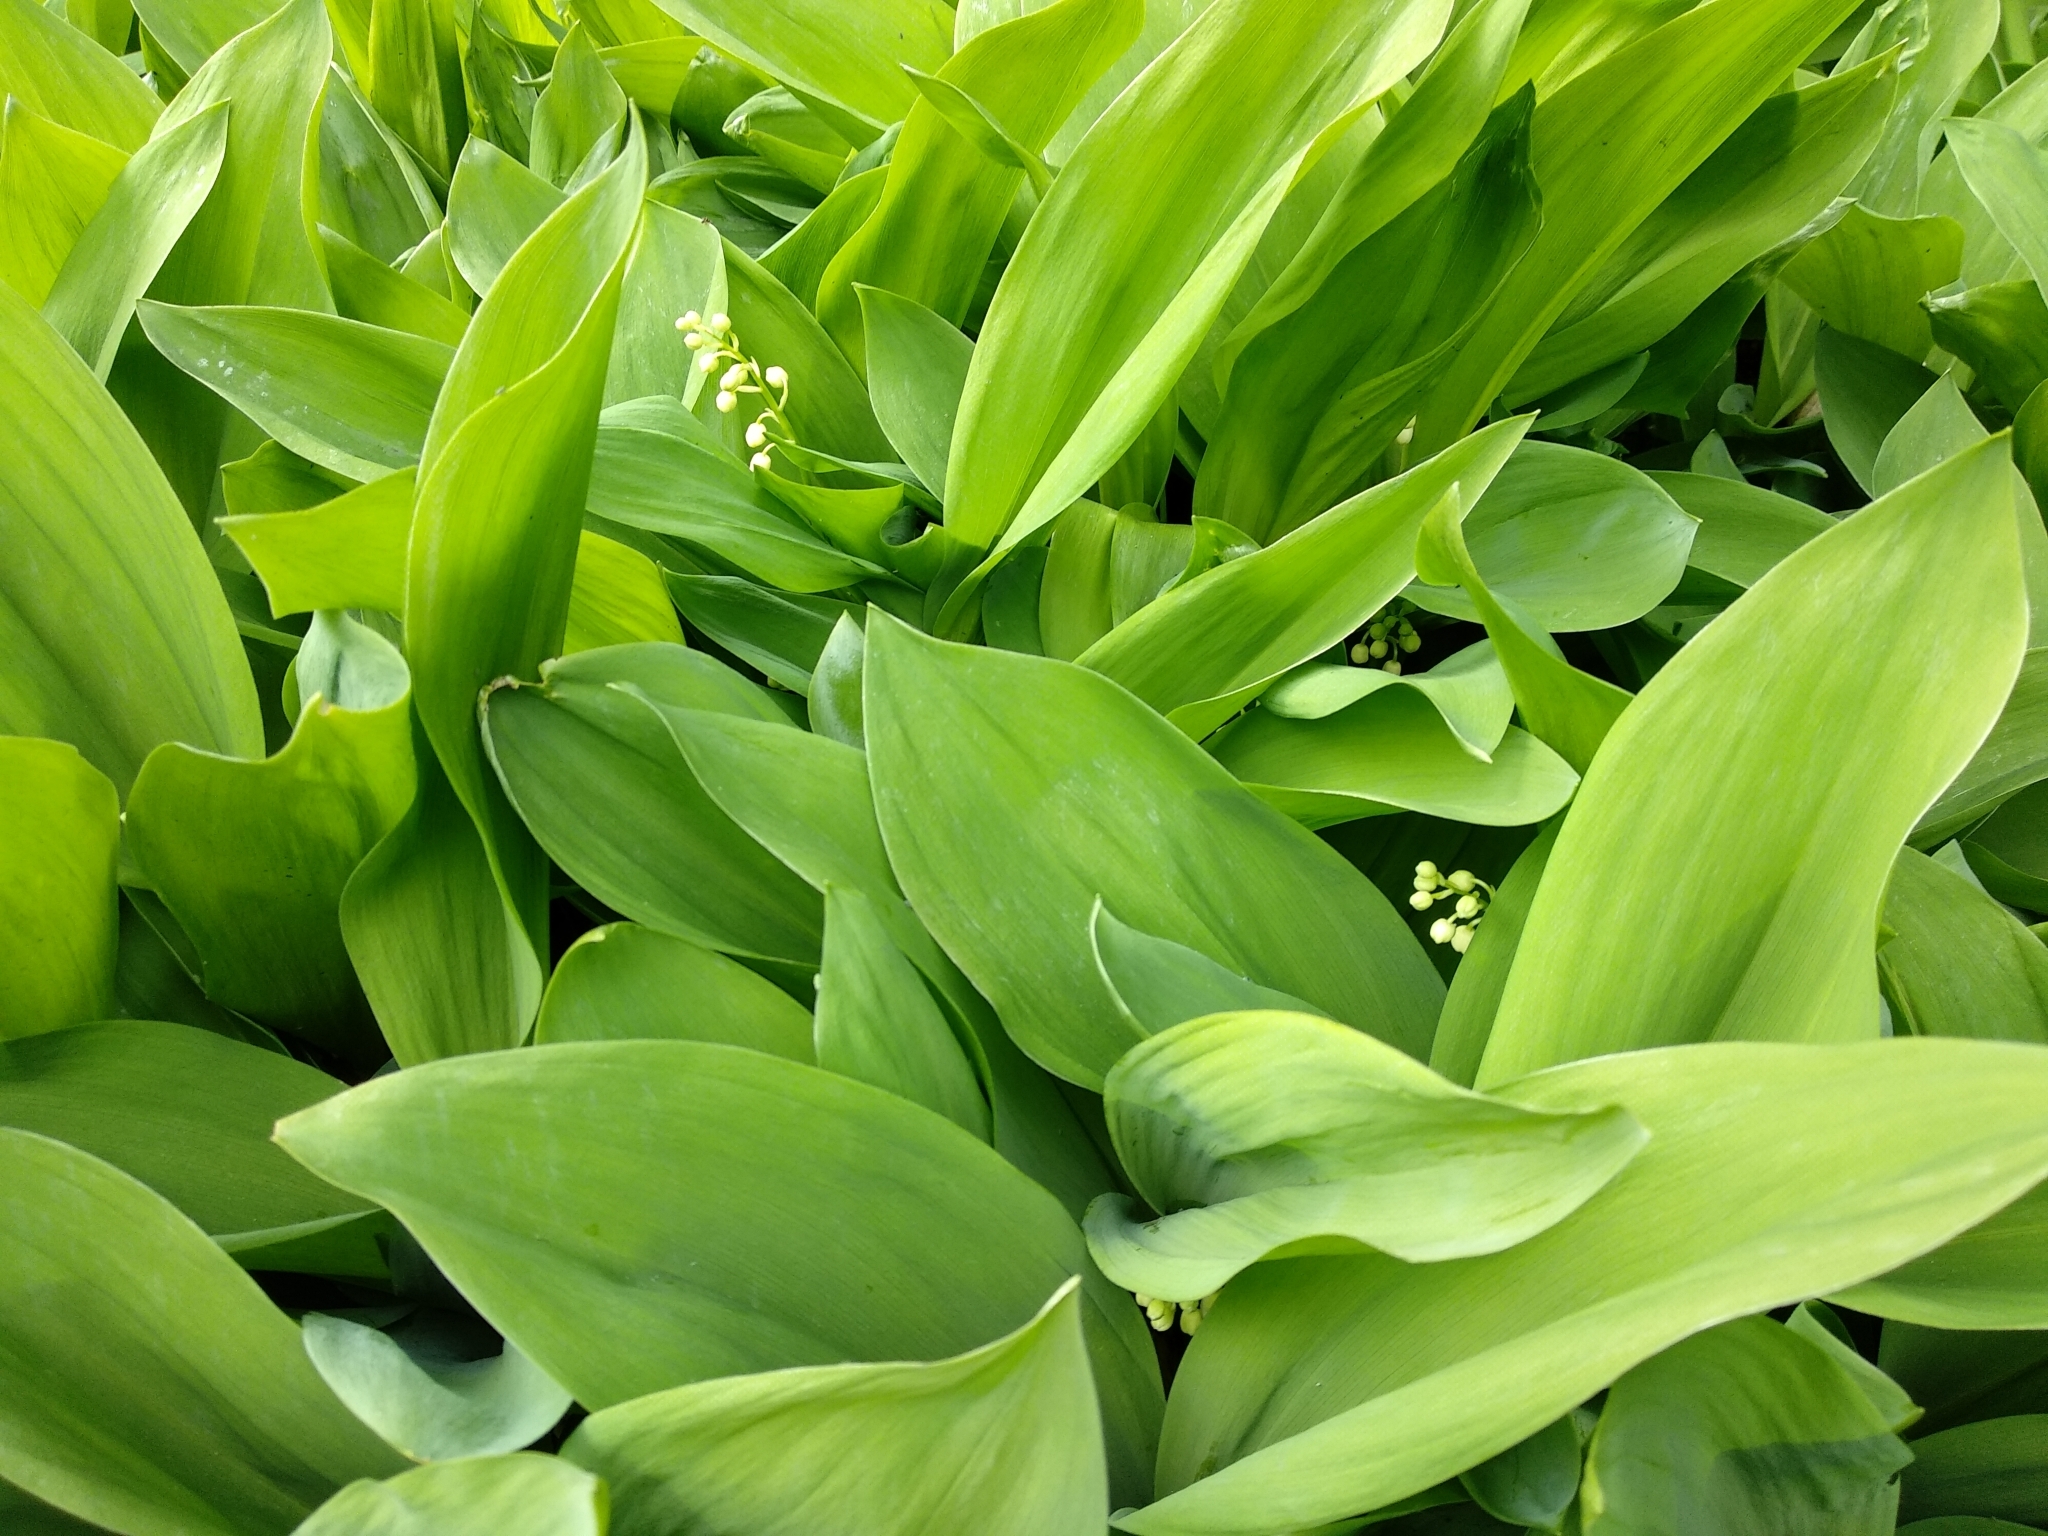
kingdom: Plantae
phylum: Tracheophyta
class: Liliopsida
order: Asparagales
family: Asparagaceae
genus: Convallaria
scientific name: Convallaria majalis
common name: Lily-of-the-valley
